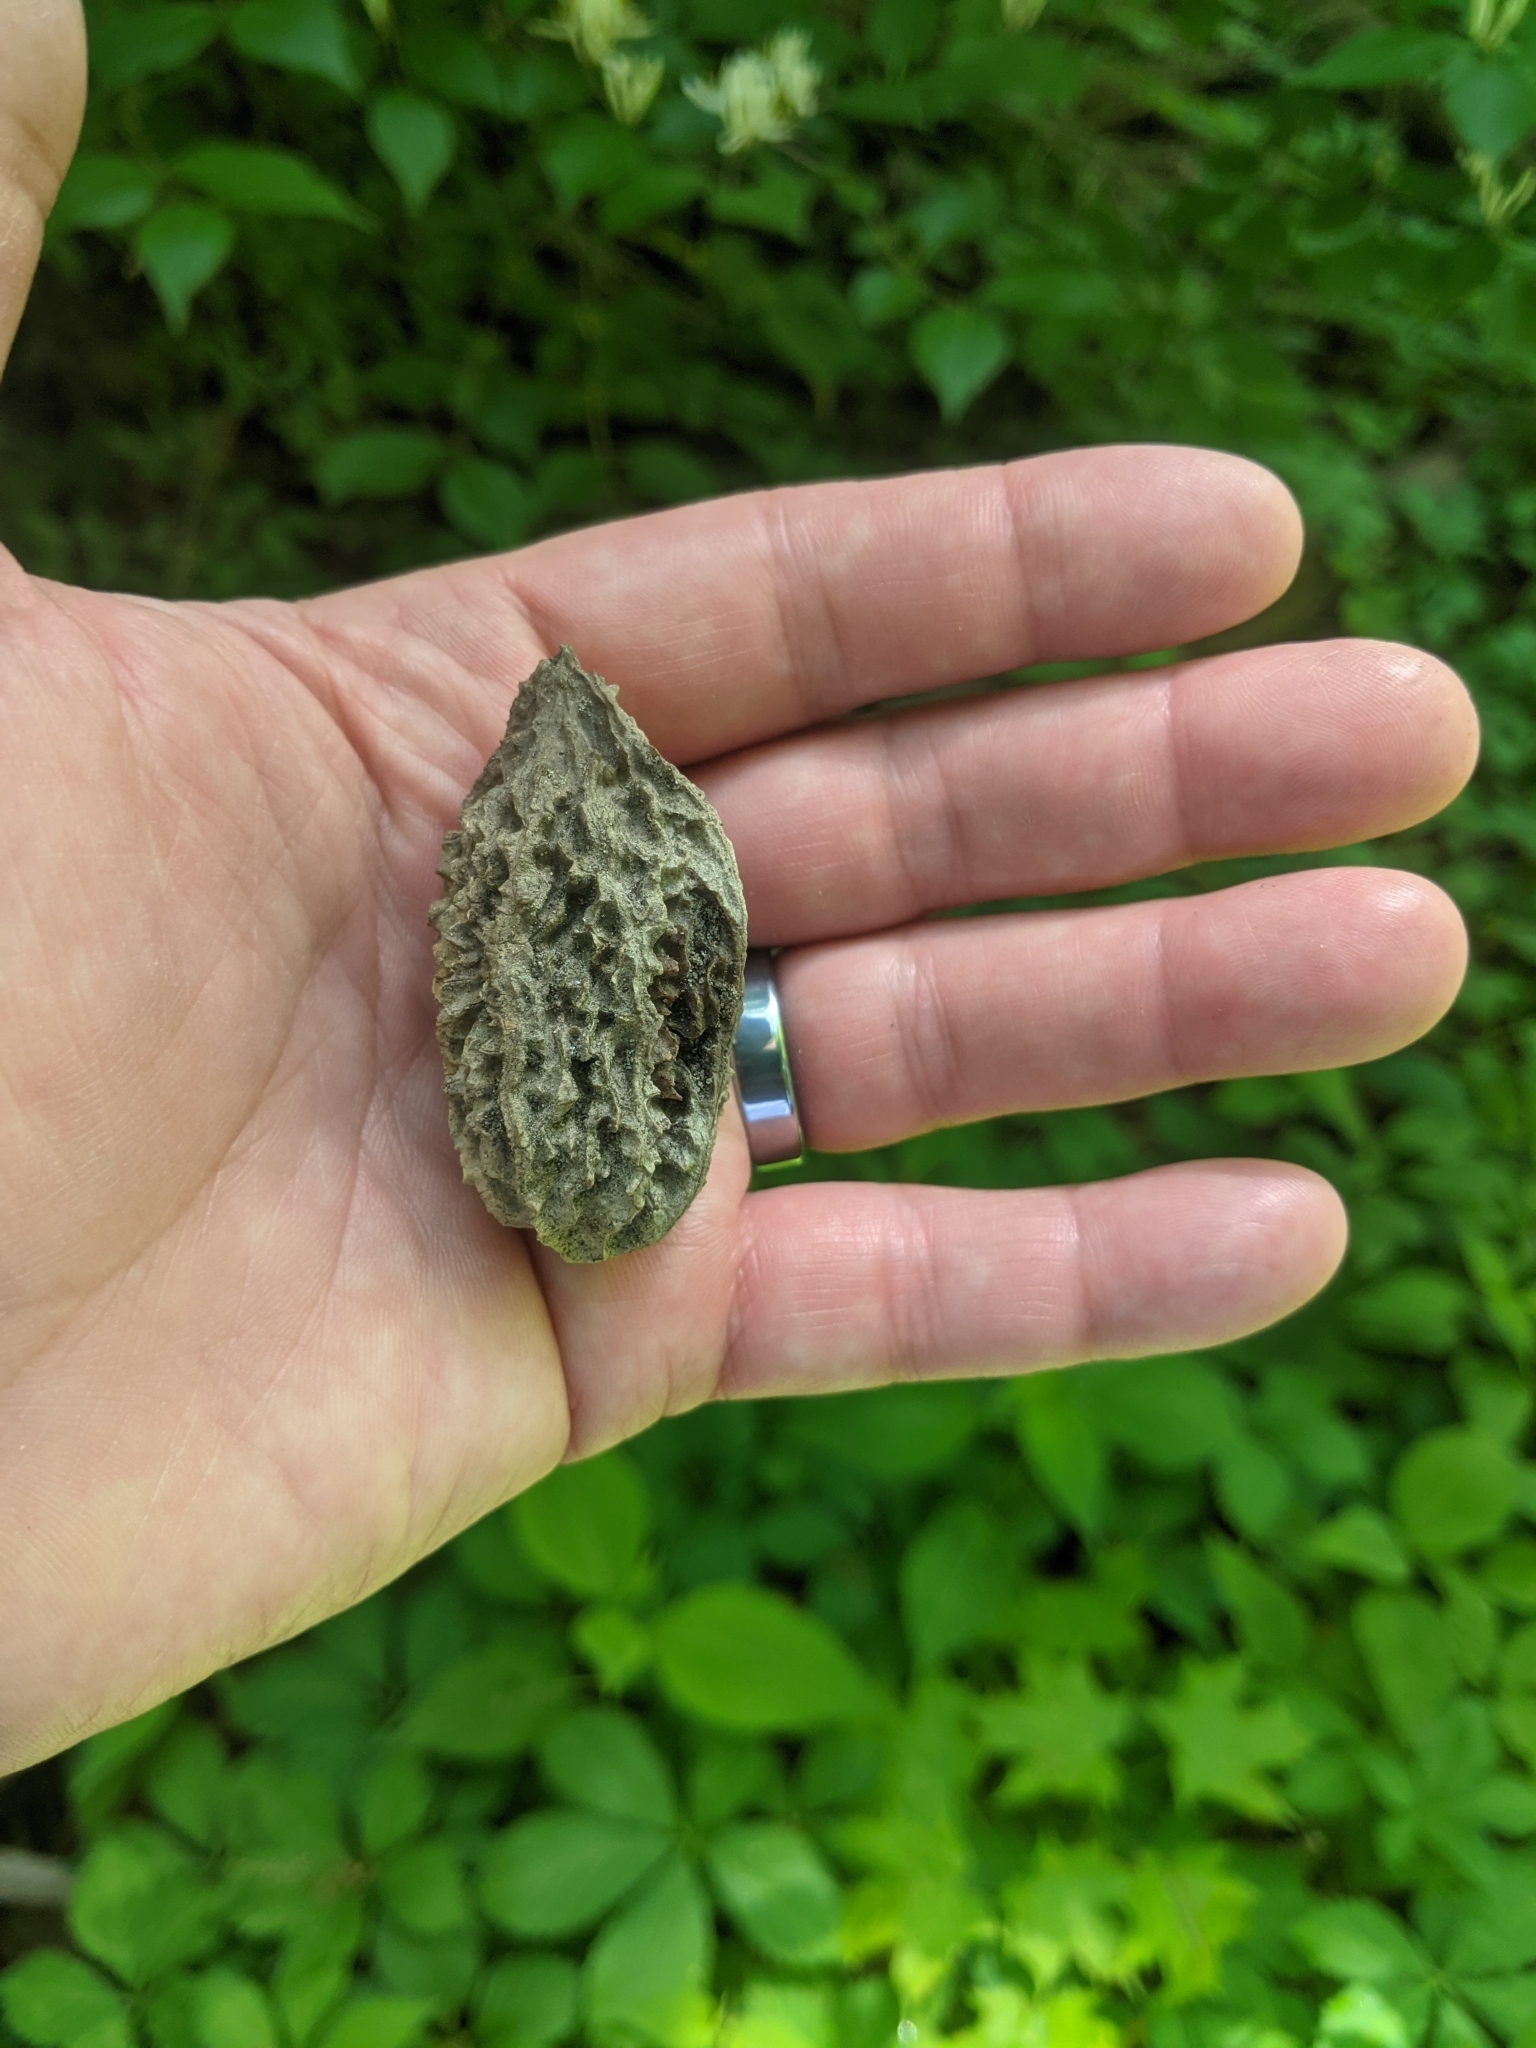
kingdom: Plantae
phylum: Tracheophyta
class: Magnoliopsida
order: Fagales
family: Juglandaceae
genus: Juglans
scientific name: Juglans cinerea
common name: Butternut
